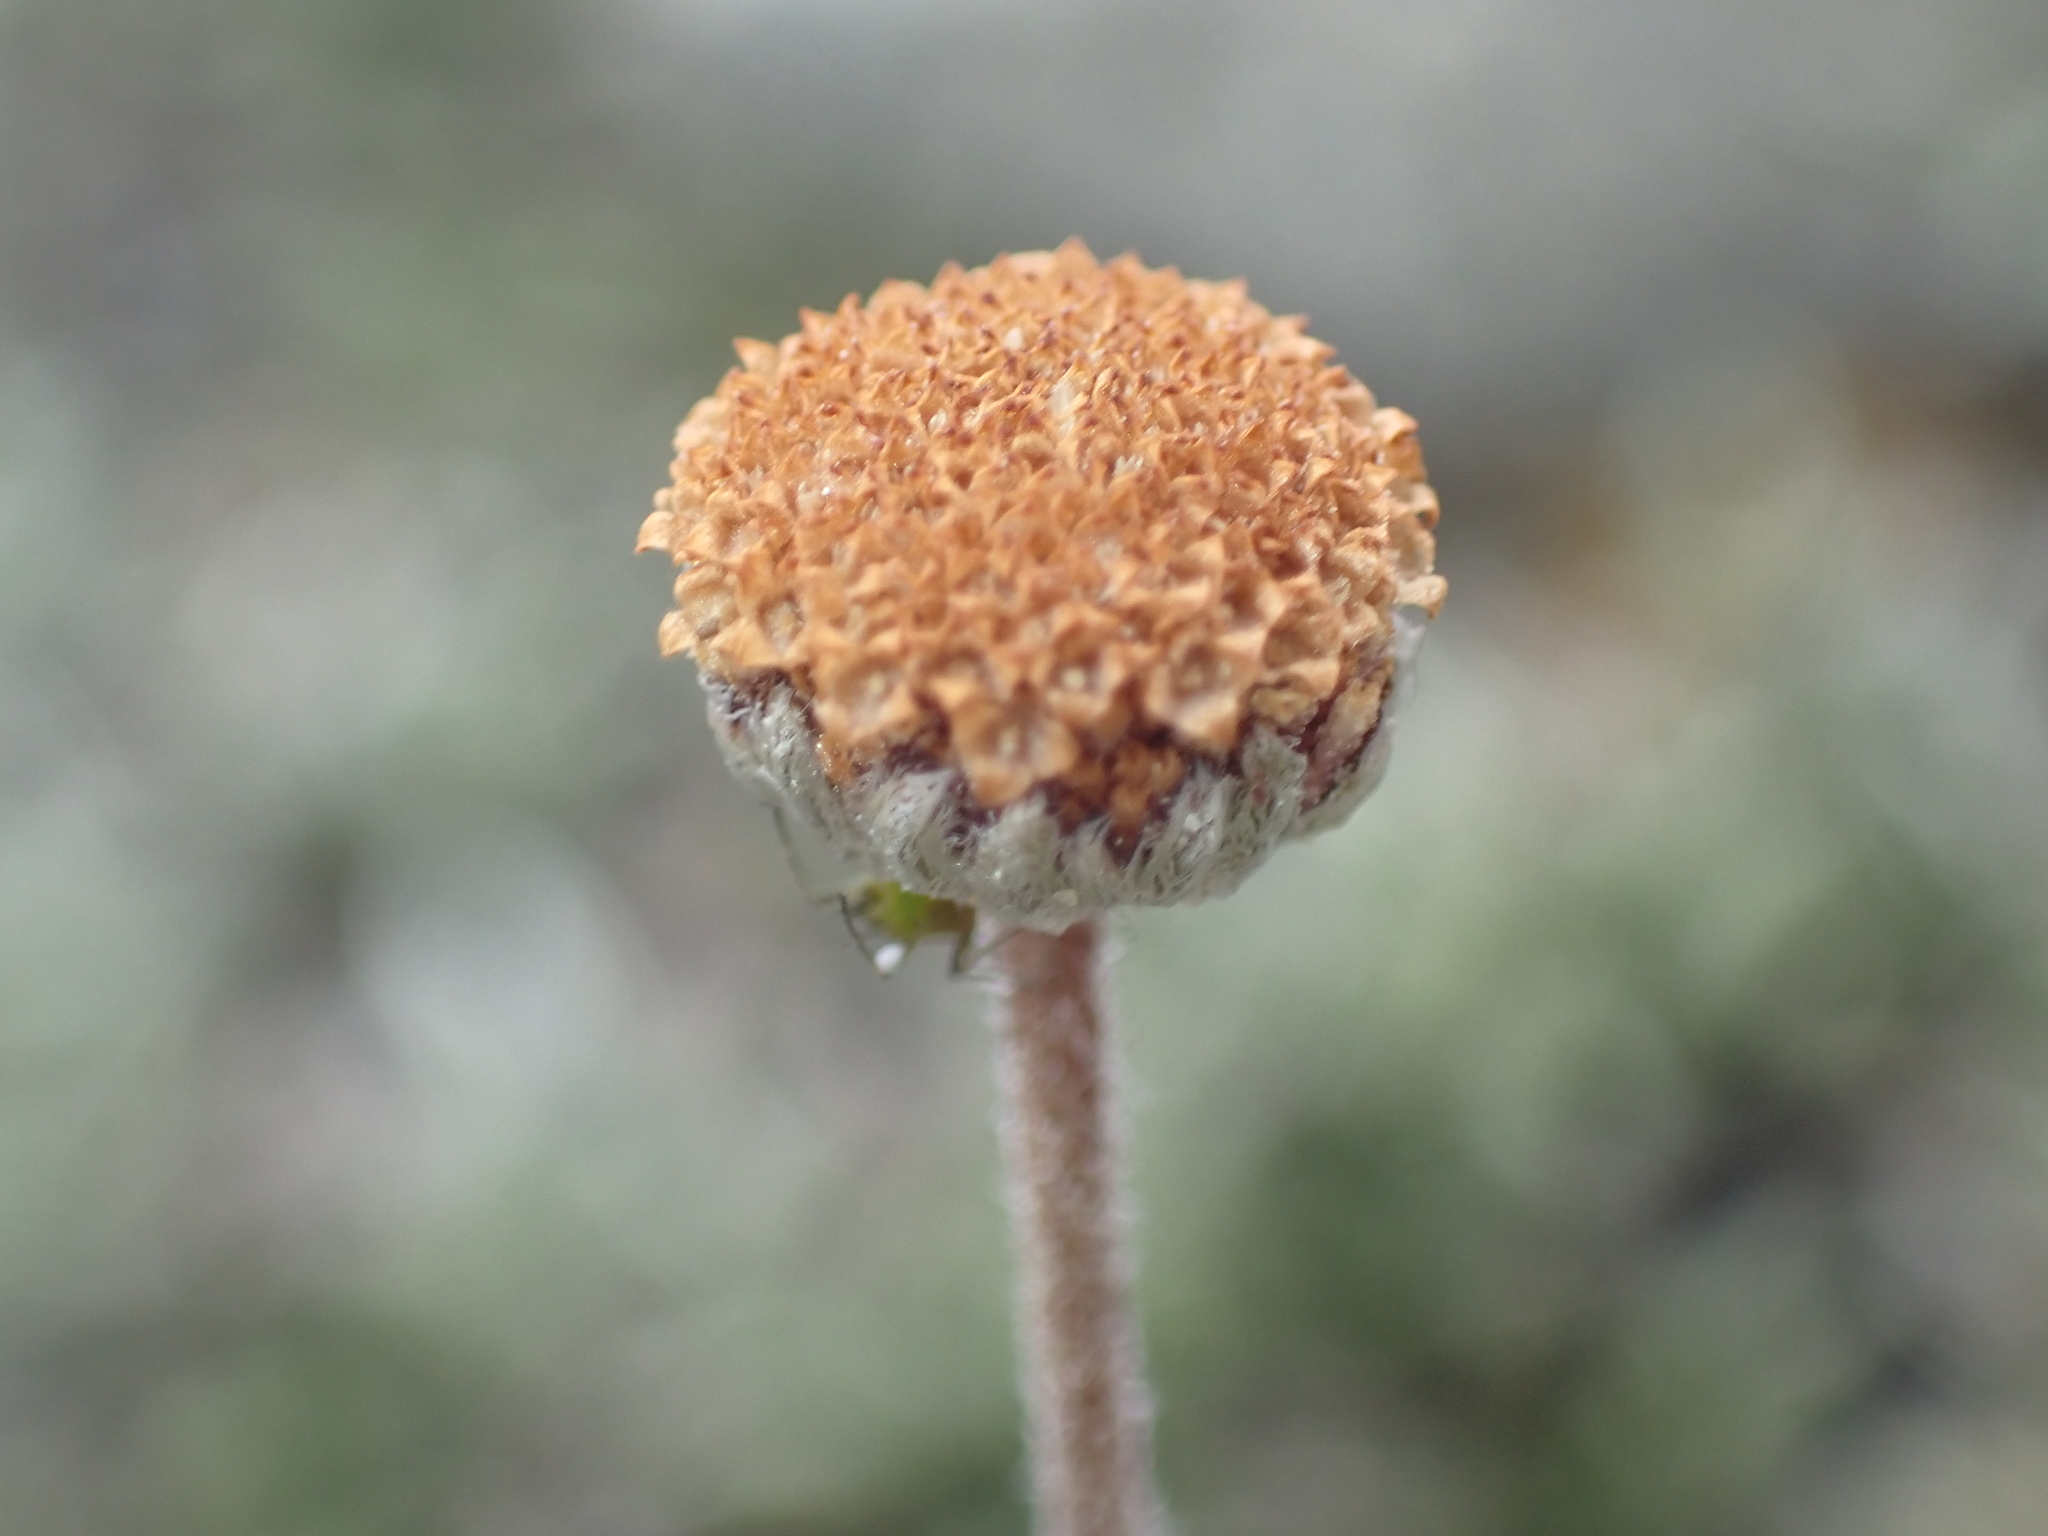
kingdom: Plantae
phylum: Tracheophyta
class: Magnoliopsida
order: Asterales
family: Asteraceae
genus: Leptinella
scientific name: Leptinella pectinata
